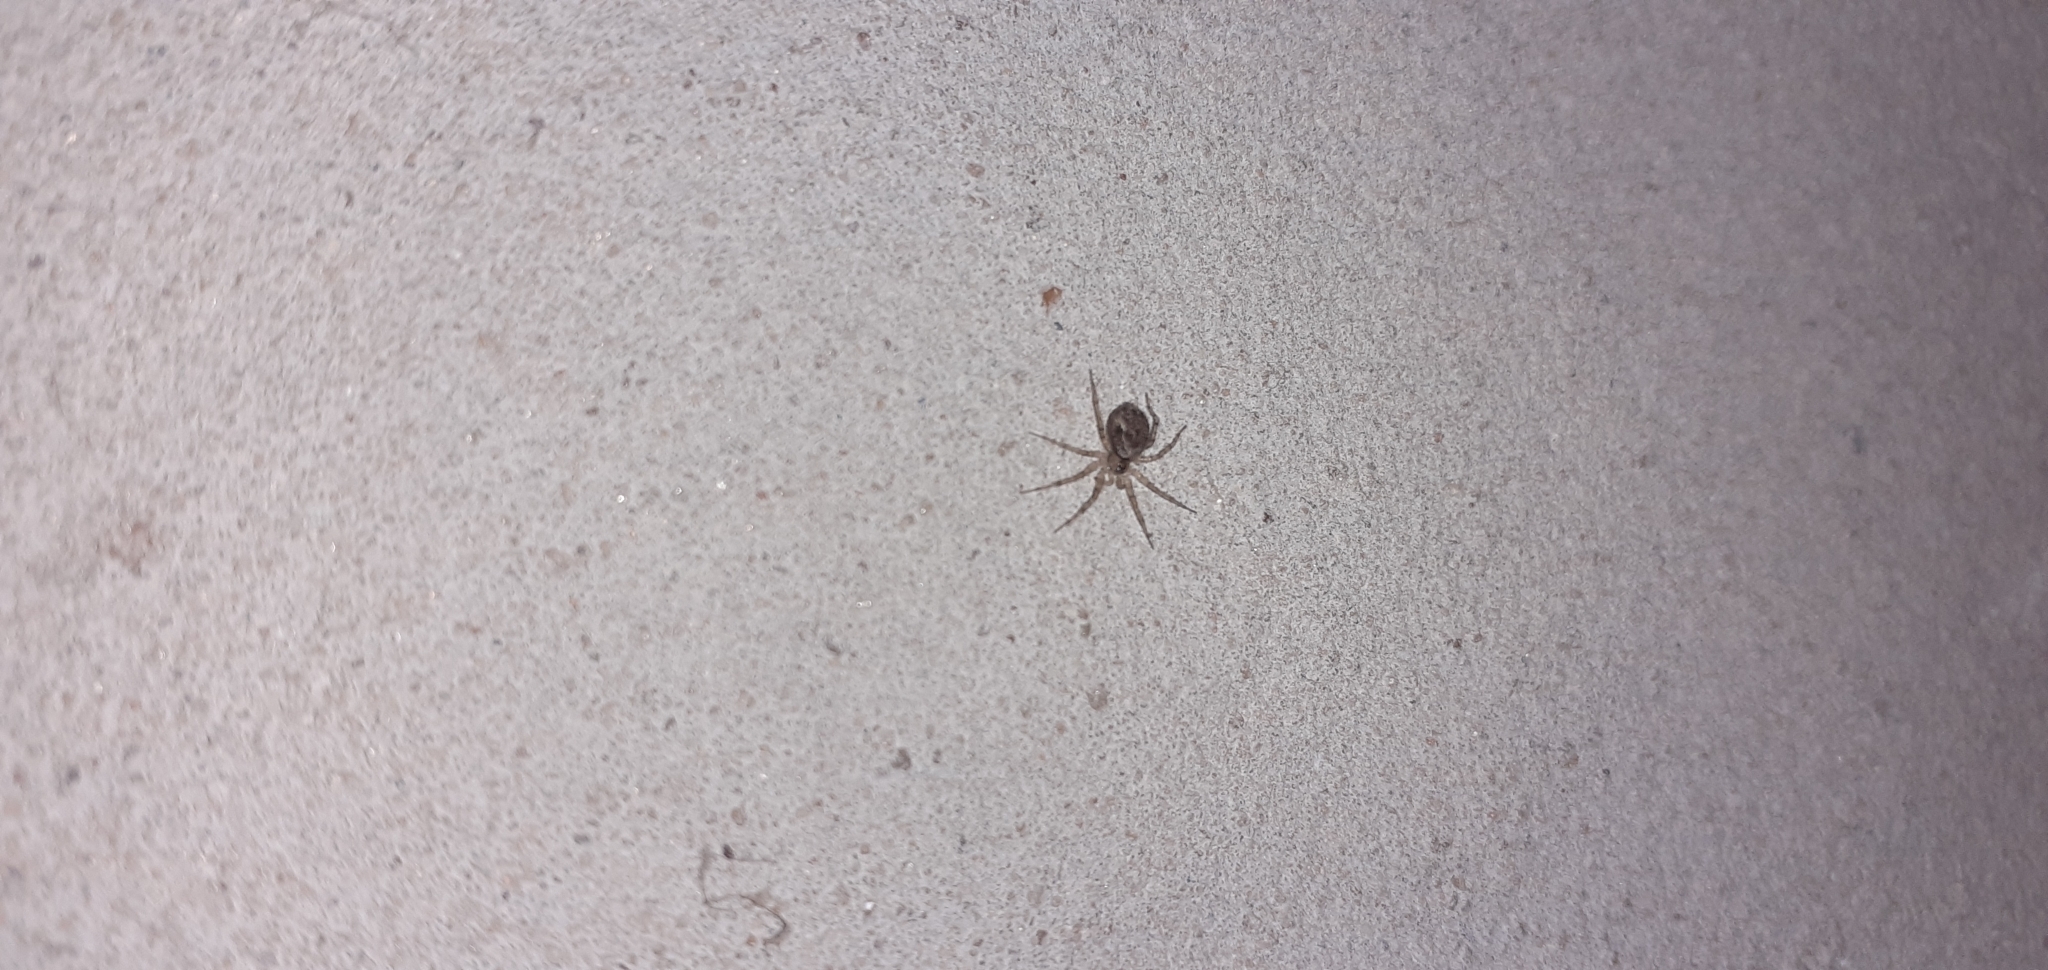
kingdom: Animalia
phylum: Arthropoda
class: Arachnida
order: Araneae
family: Oecobiidae
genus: Oecobius
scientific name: Oecobius navus
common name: Flatmesh weaver
